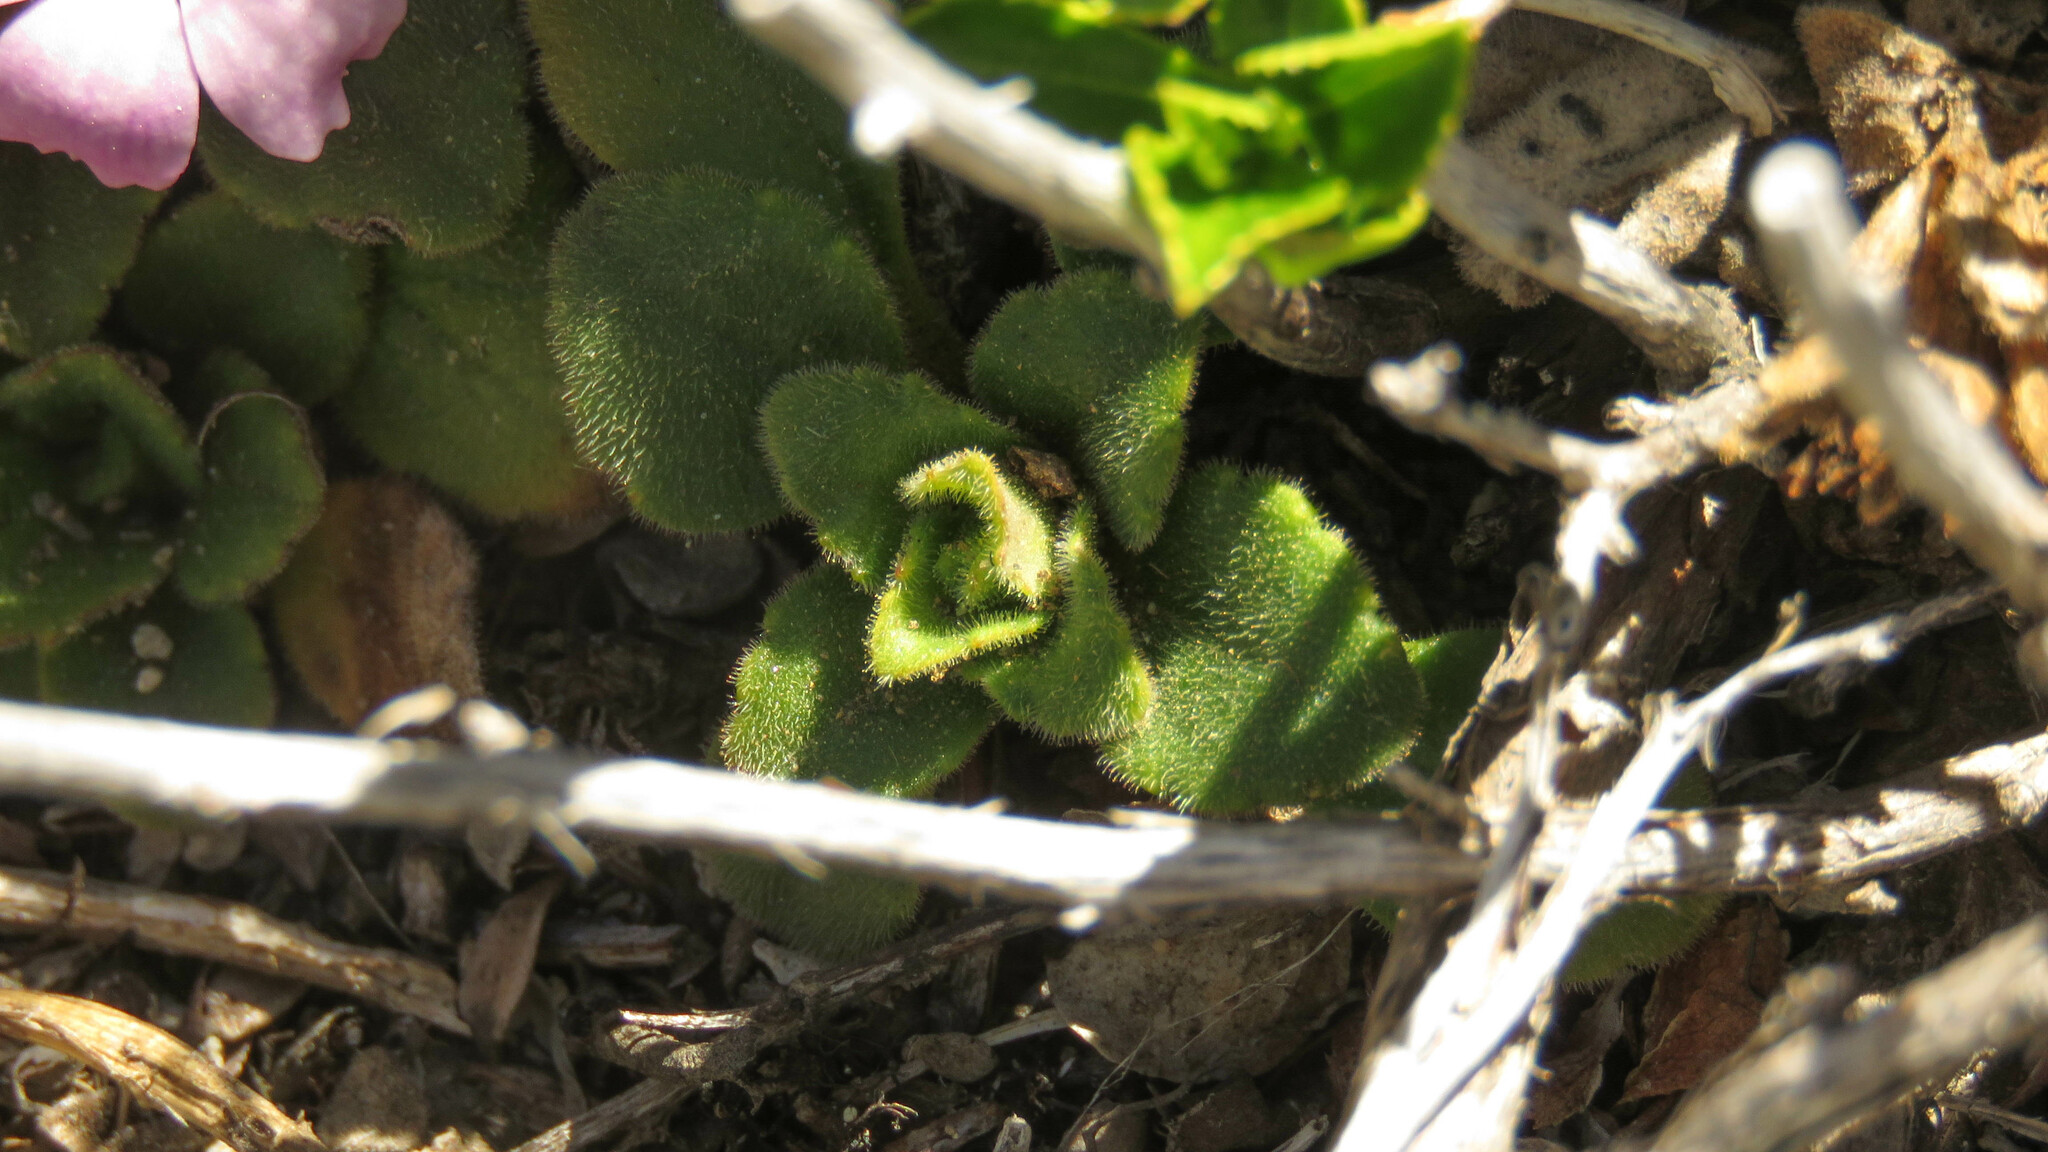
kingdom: Plantae
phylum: Tracheophyta
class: Magnoliopsida
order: Lamiales
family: Plantaginaceae
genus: Ourisia
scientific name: Ourisia fragrans
